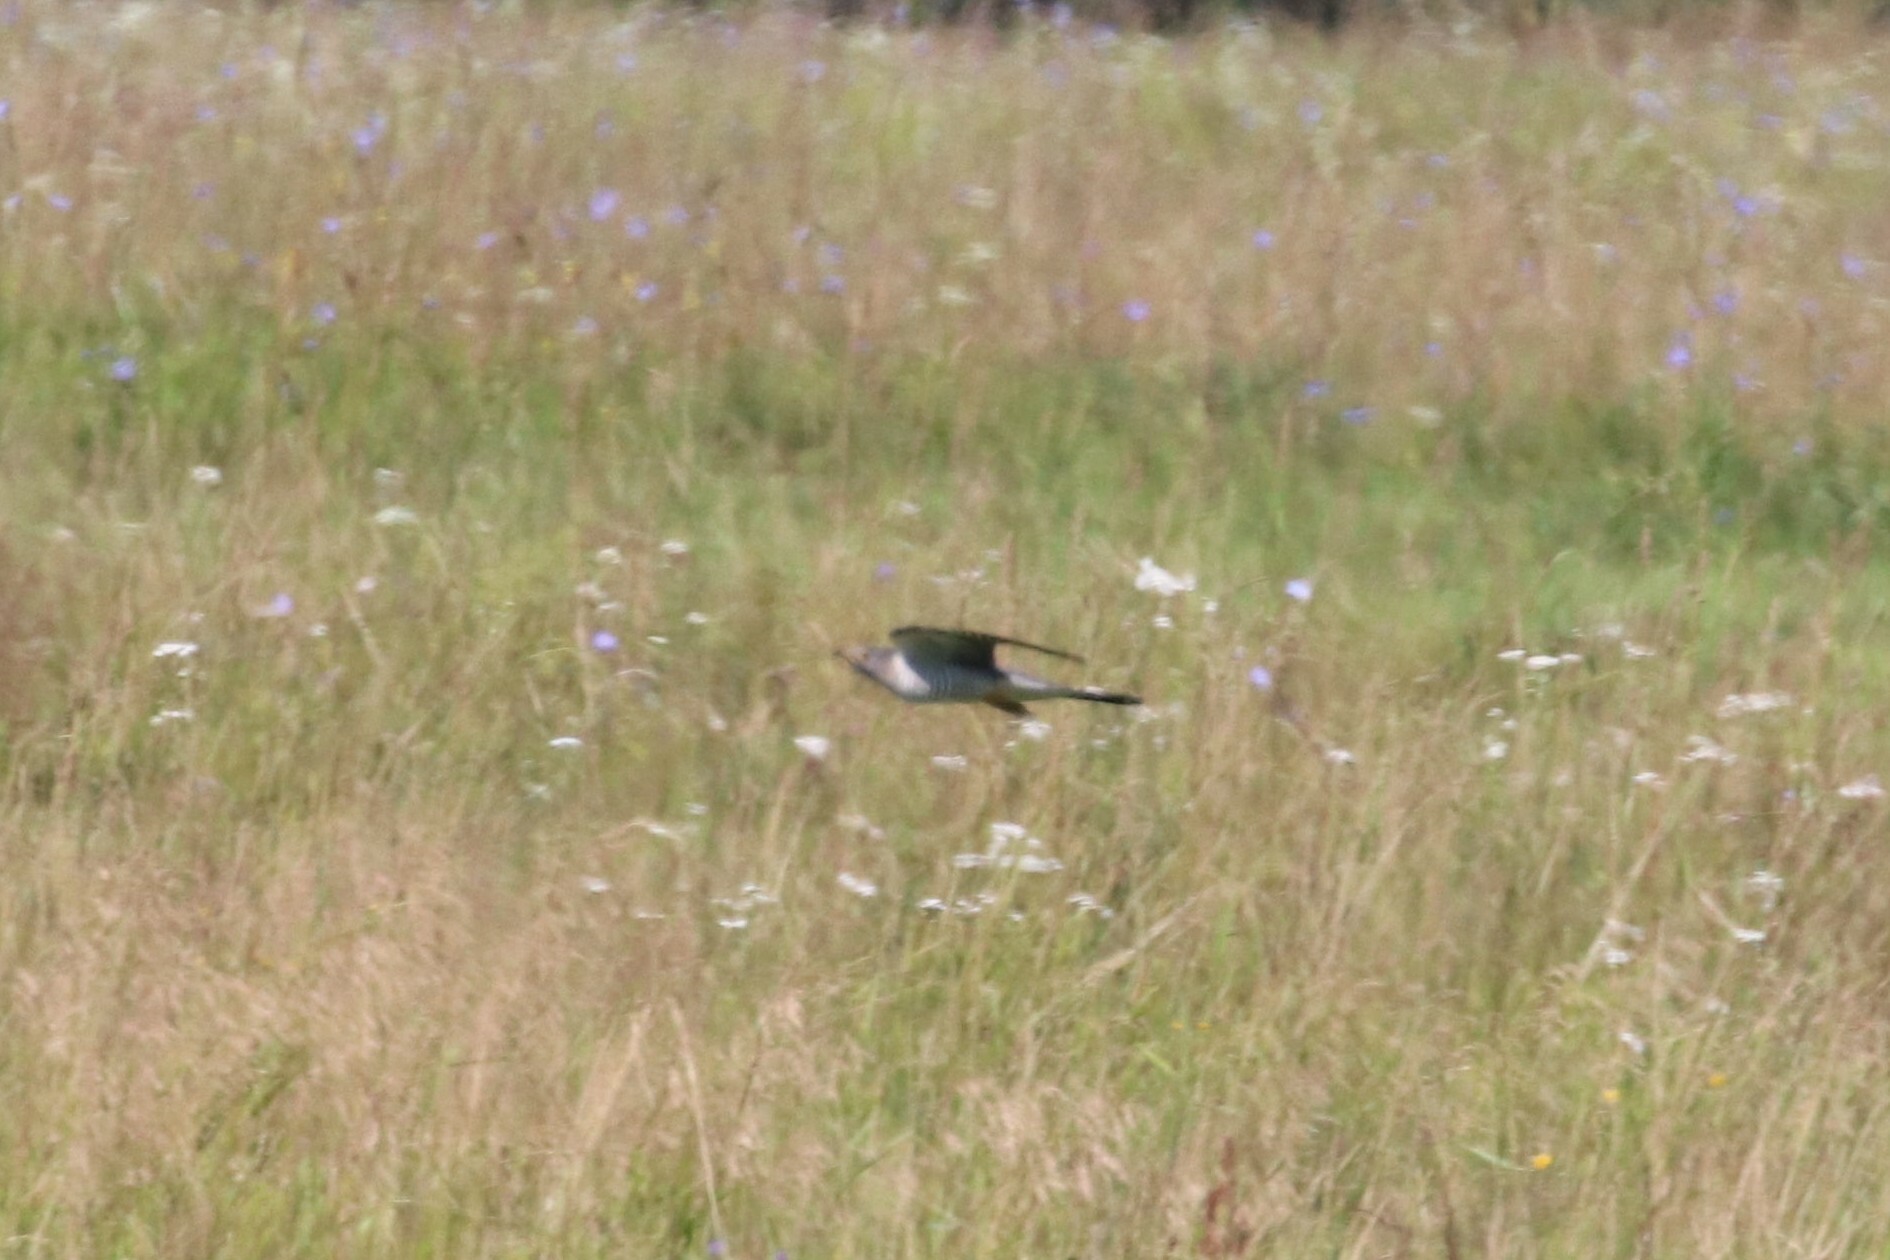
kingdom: Animalia
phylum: Chordata
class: Aves
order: Cuculiformes
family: Cuculidae
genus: Cuculus
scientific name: Cuculus canorus
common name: Common cuckoo
